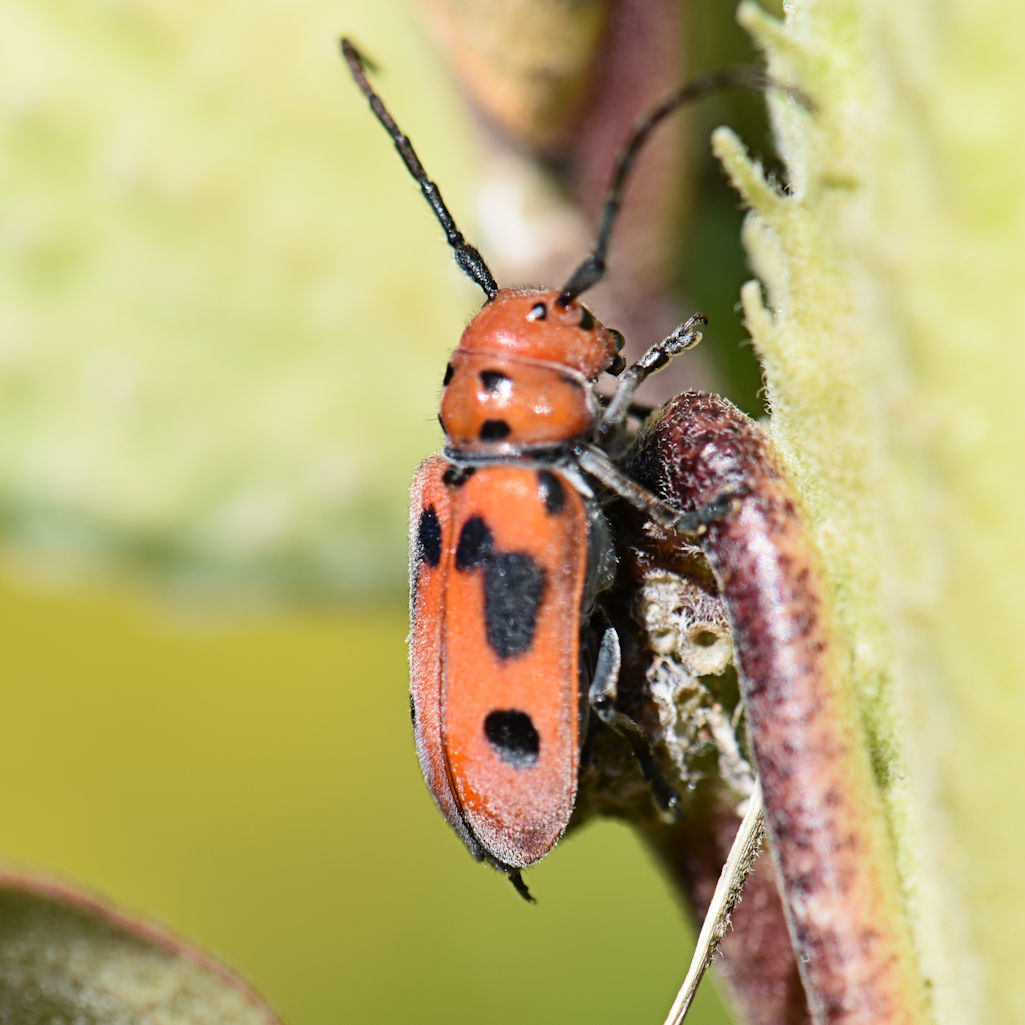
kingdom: Animalia
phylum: Arthropoda
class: Insecta
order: Coleoptera
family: Cerambycidae
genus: Tetraopes
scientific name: Tetraopes tetrophthalmus
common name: Red milkweed beetle
